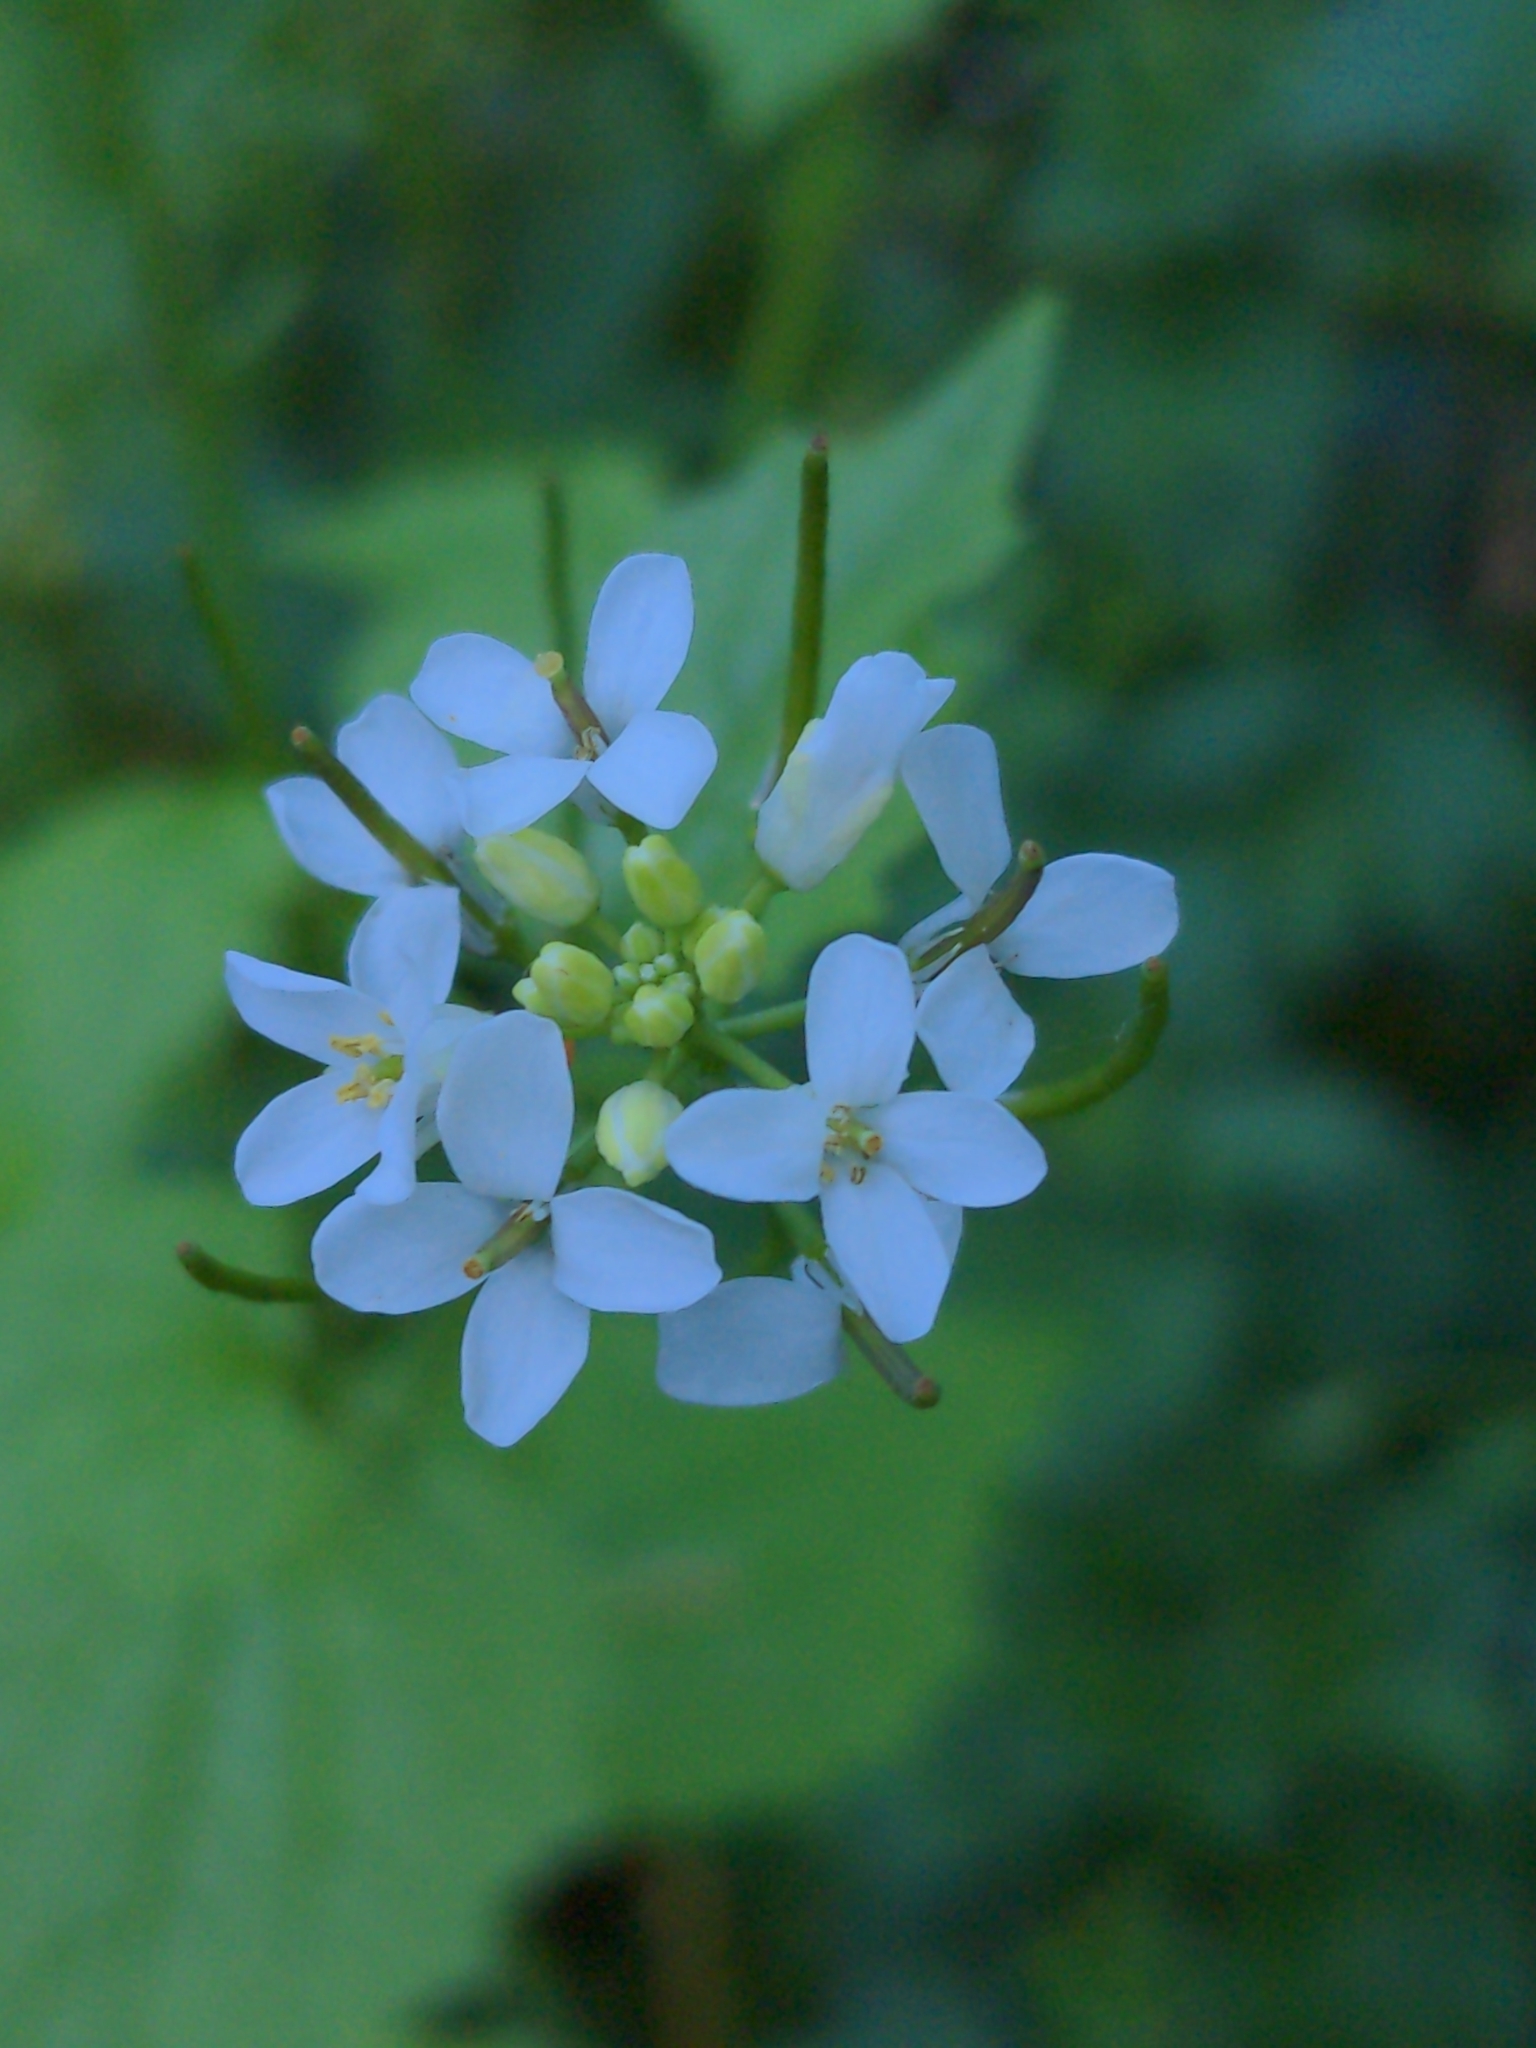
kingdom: Plantae
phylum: Tracheophyta
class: Magnoliopsida
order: Brassicales
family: Brassicaceae
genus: Alliaria
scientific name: Alliaria petiolata
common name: Garlic mustard
